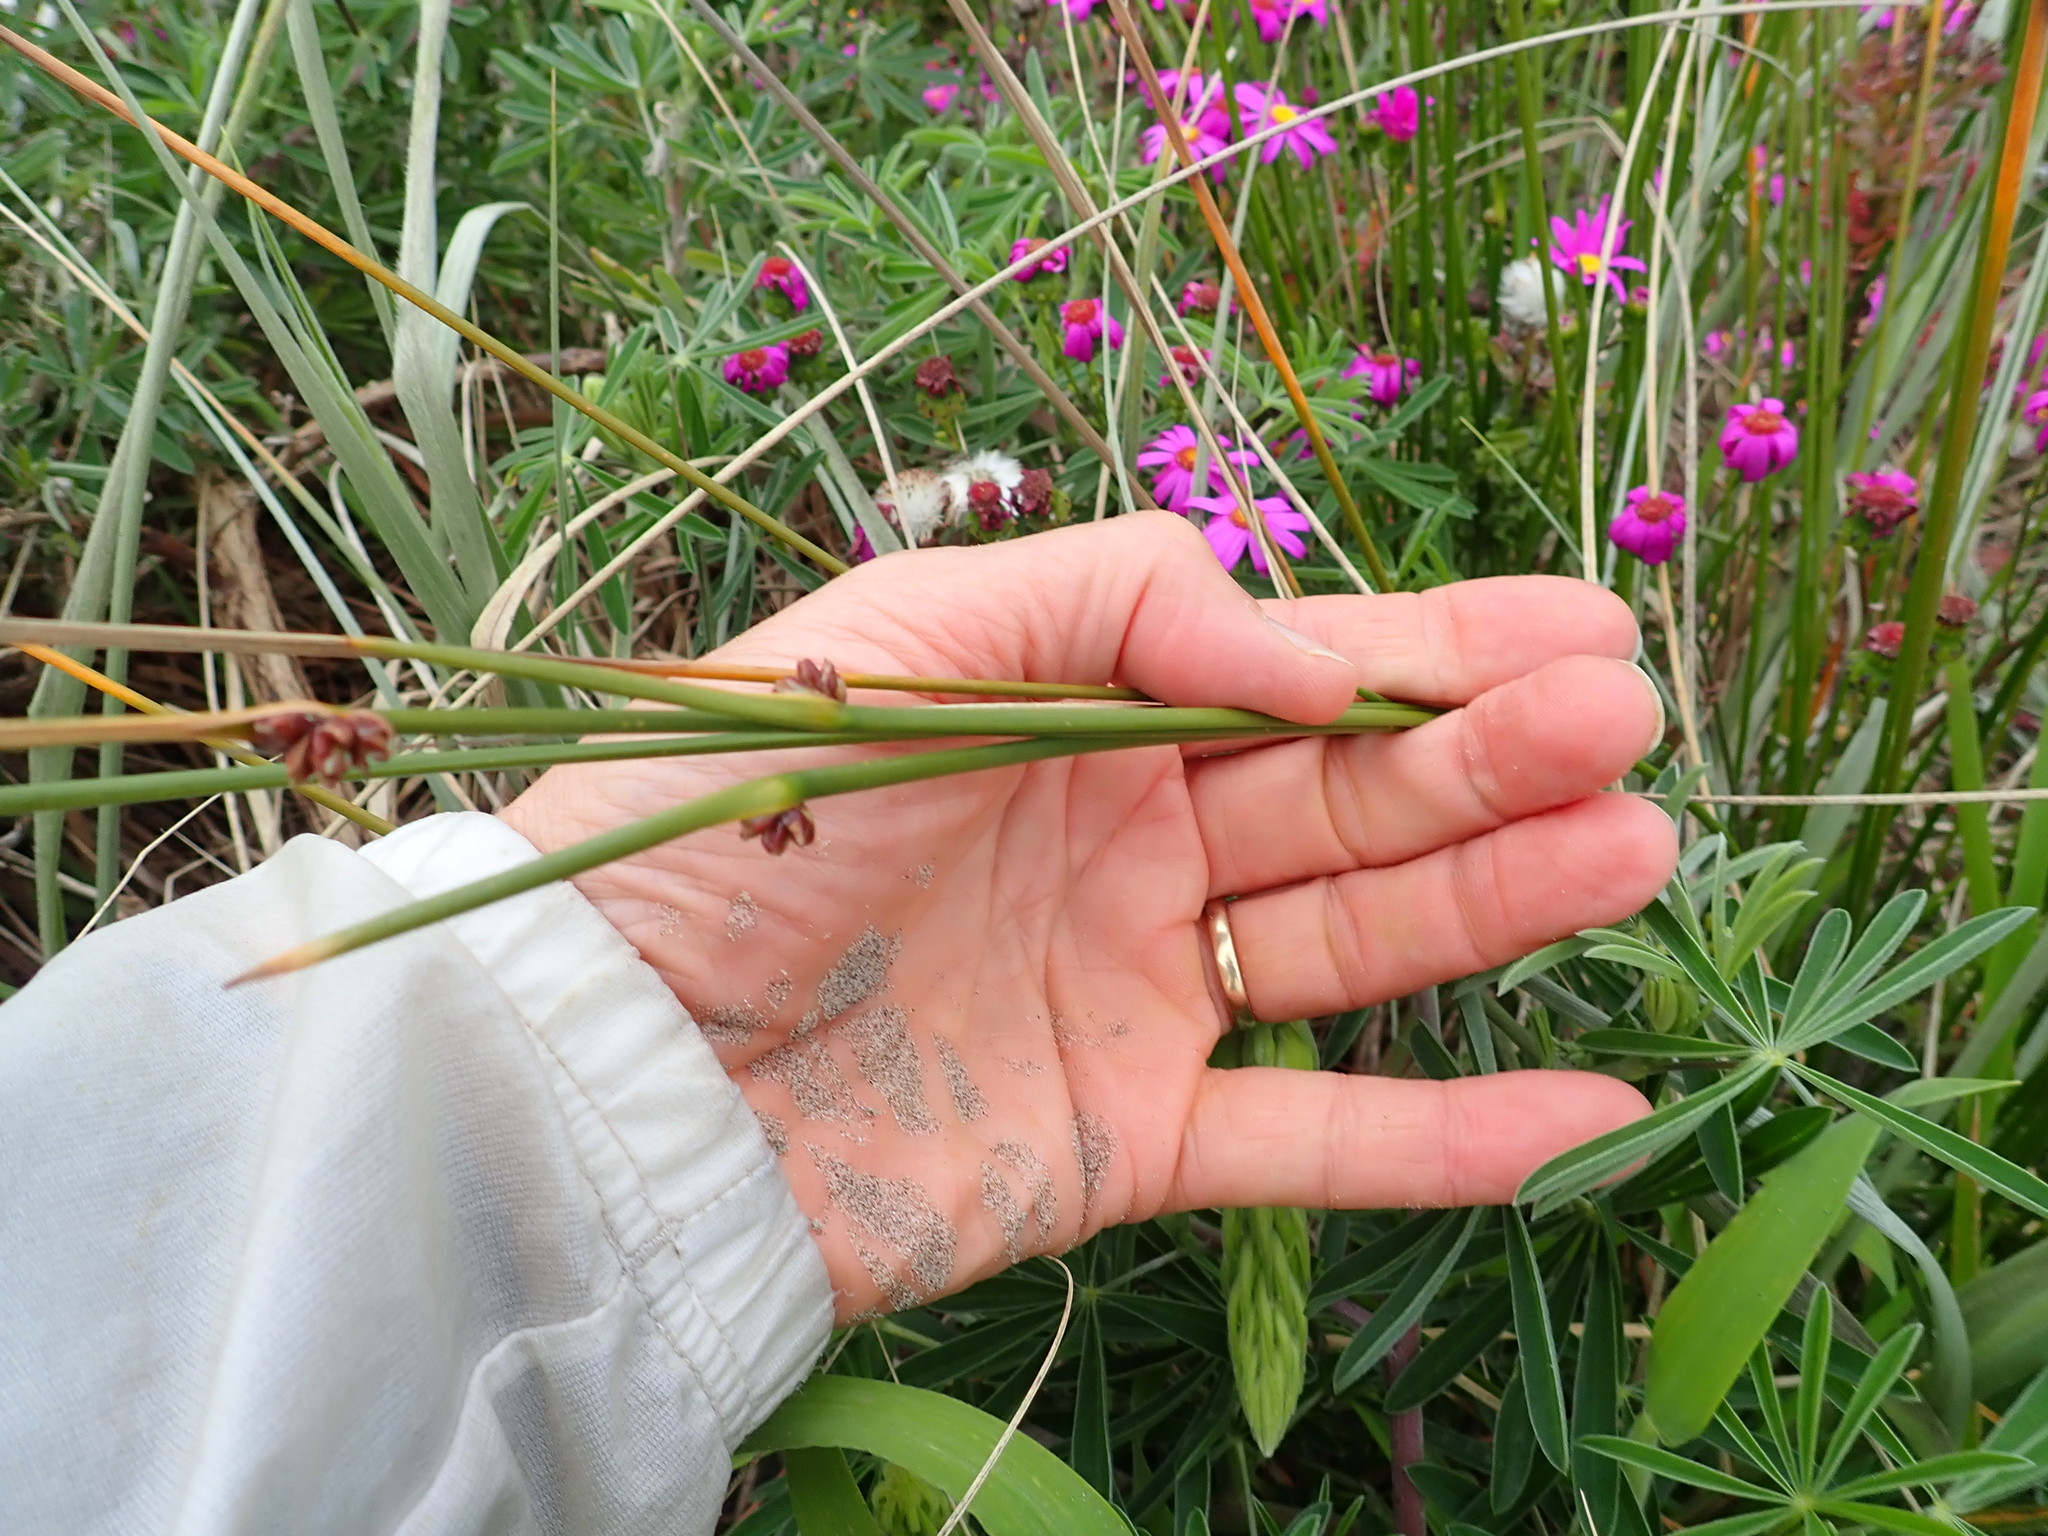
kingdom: Plantae
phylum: Tracheophyta
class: Liliopsida
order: Poales
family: Cyperaceae
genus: Ficinia
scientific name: Ficinia nodosa
